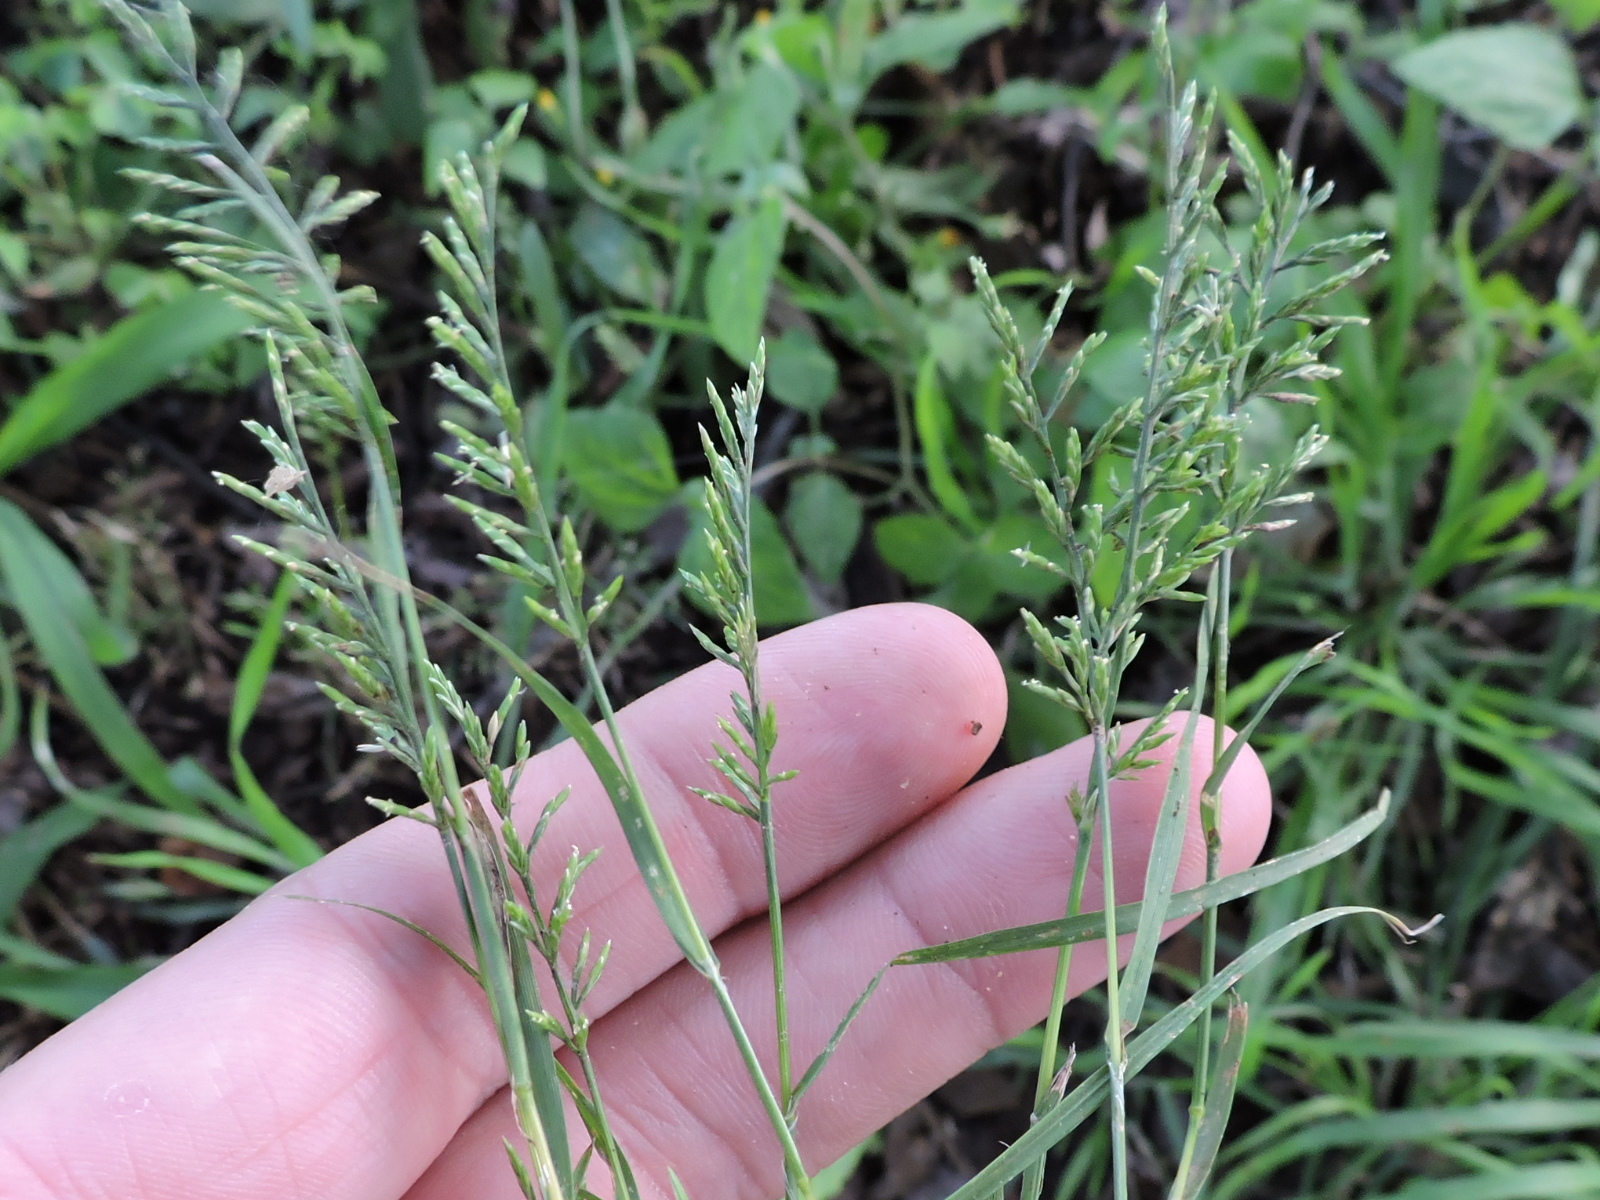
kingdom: Plantae
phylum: Tracheophyta
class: Liliopsida
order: Poales
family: Poaceae
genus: Catapodium
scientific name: Catapodium rigidum
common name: Fern-grass
